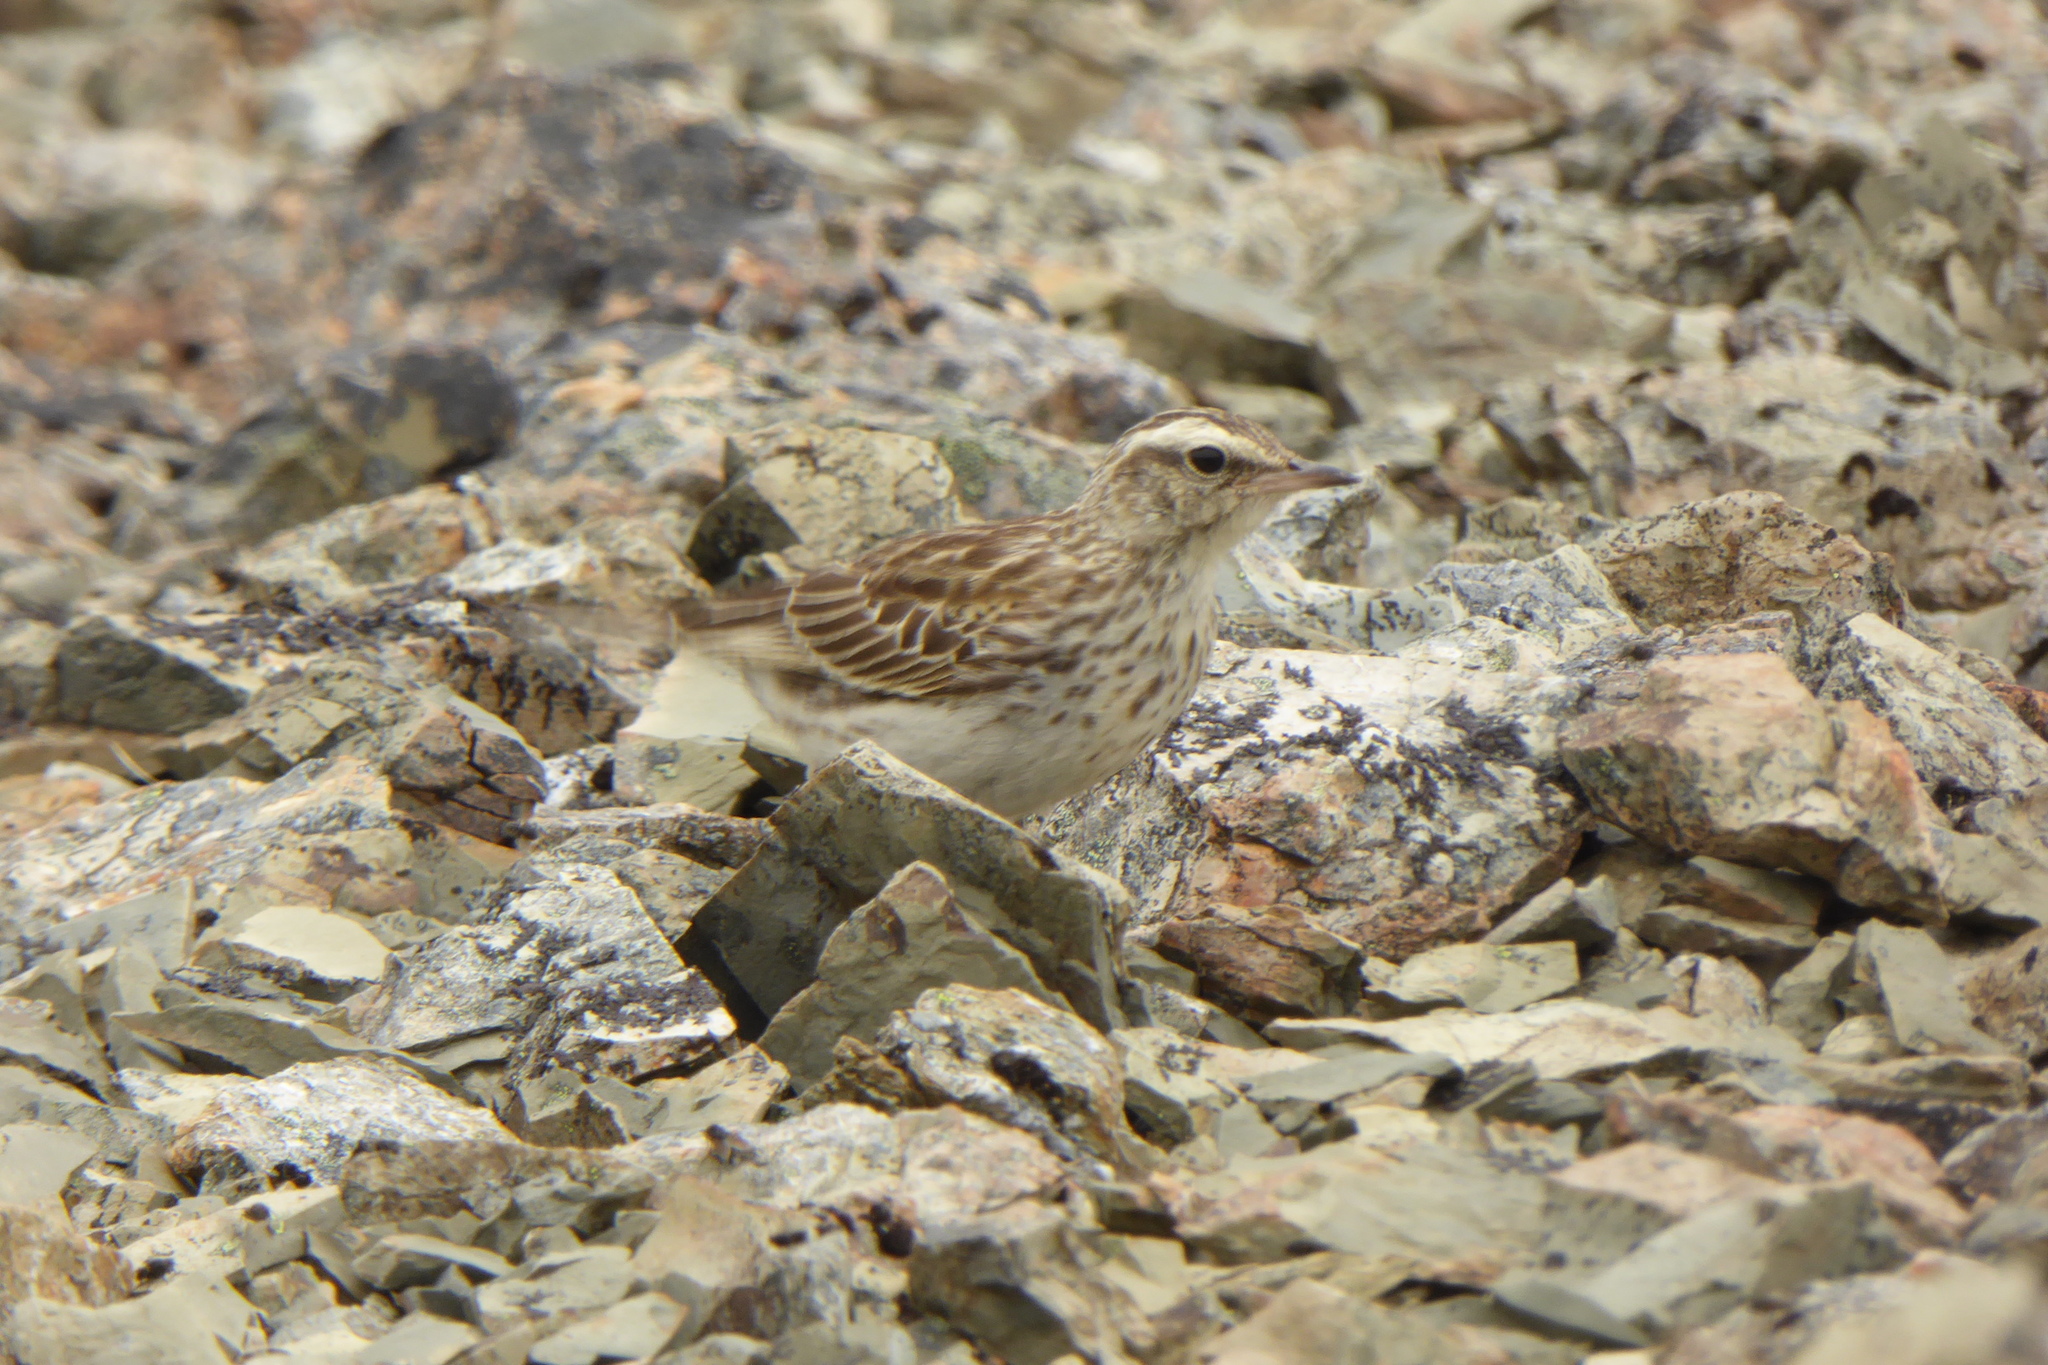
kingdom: Animalia
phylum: Chordata
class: Aves
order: Passeriformes
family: Motacillidae
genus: Anthus
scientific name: Anthus novaeseelandiae
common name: New zealand pipit
